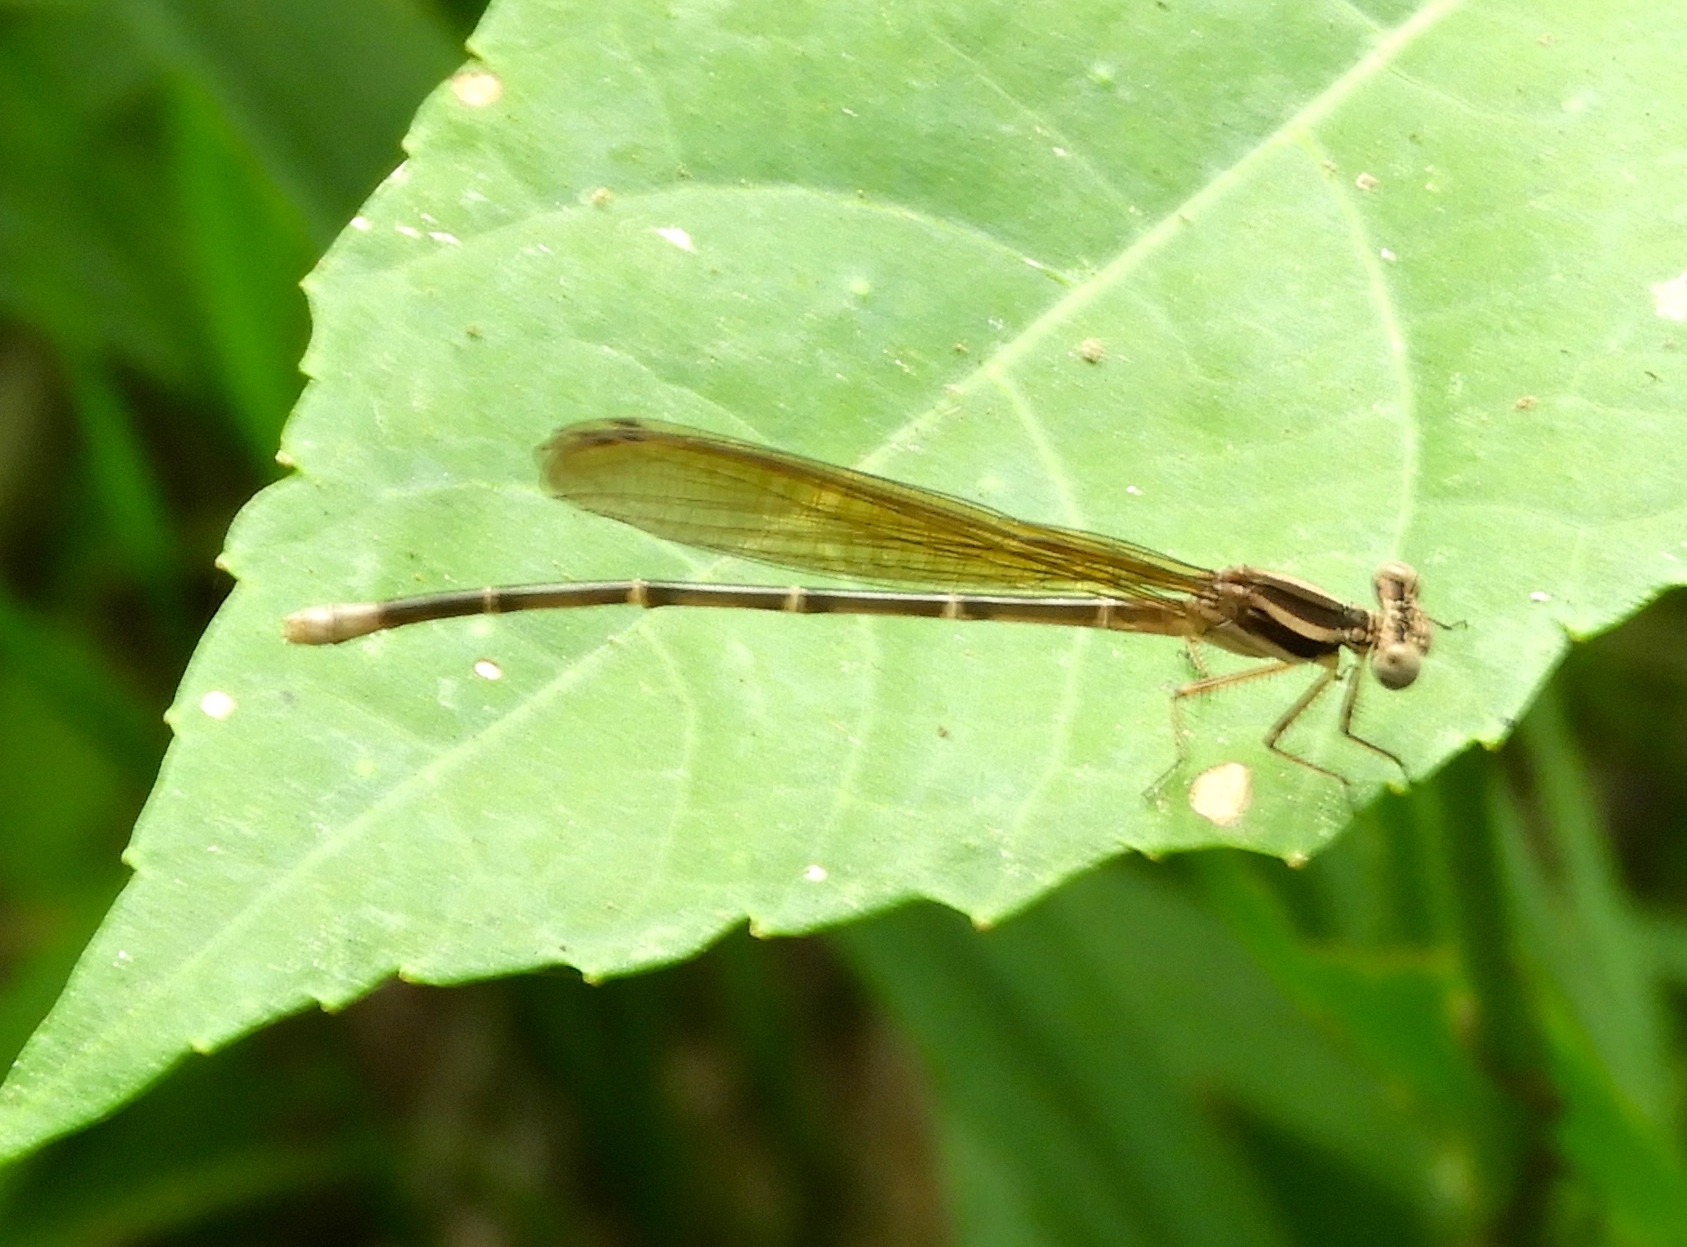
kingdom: Animalia
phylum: Arthropoda
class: Insecta
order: Odonata
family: Coenagrionidae
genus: Argia
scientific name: Argia
